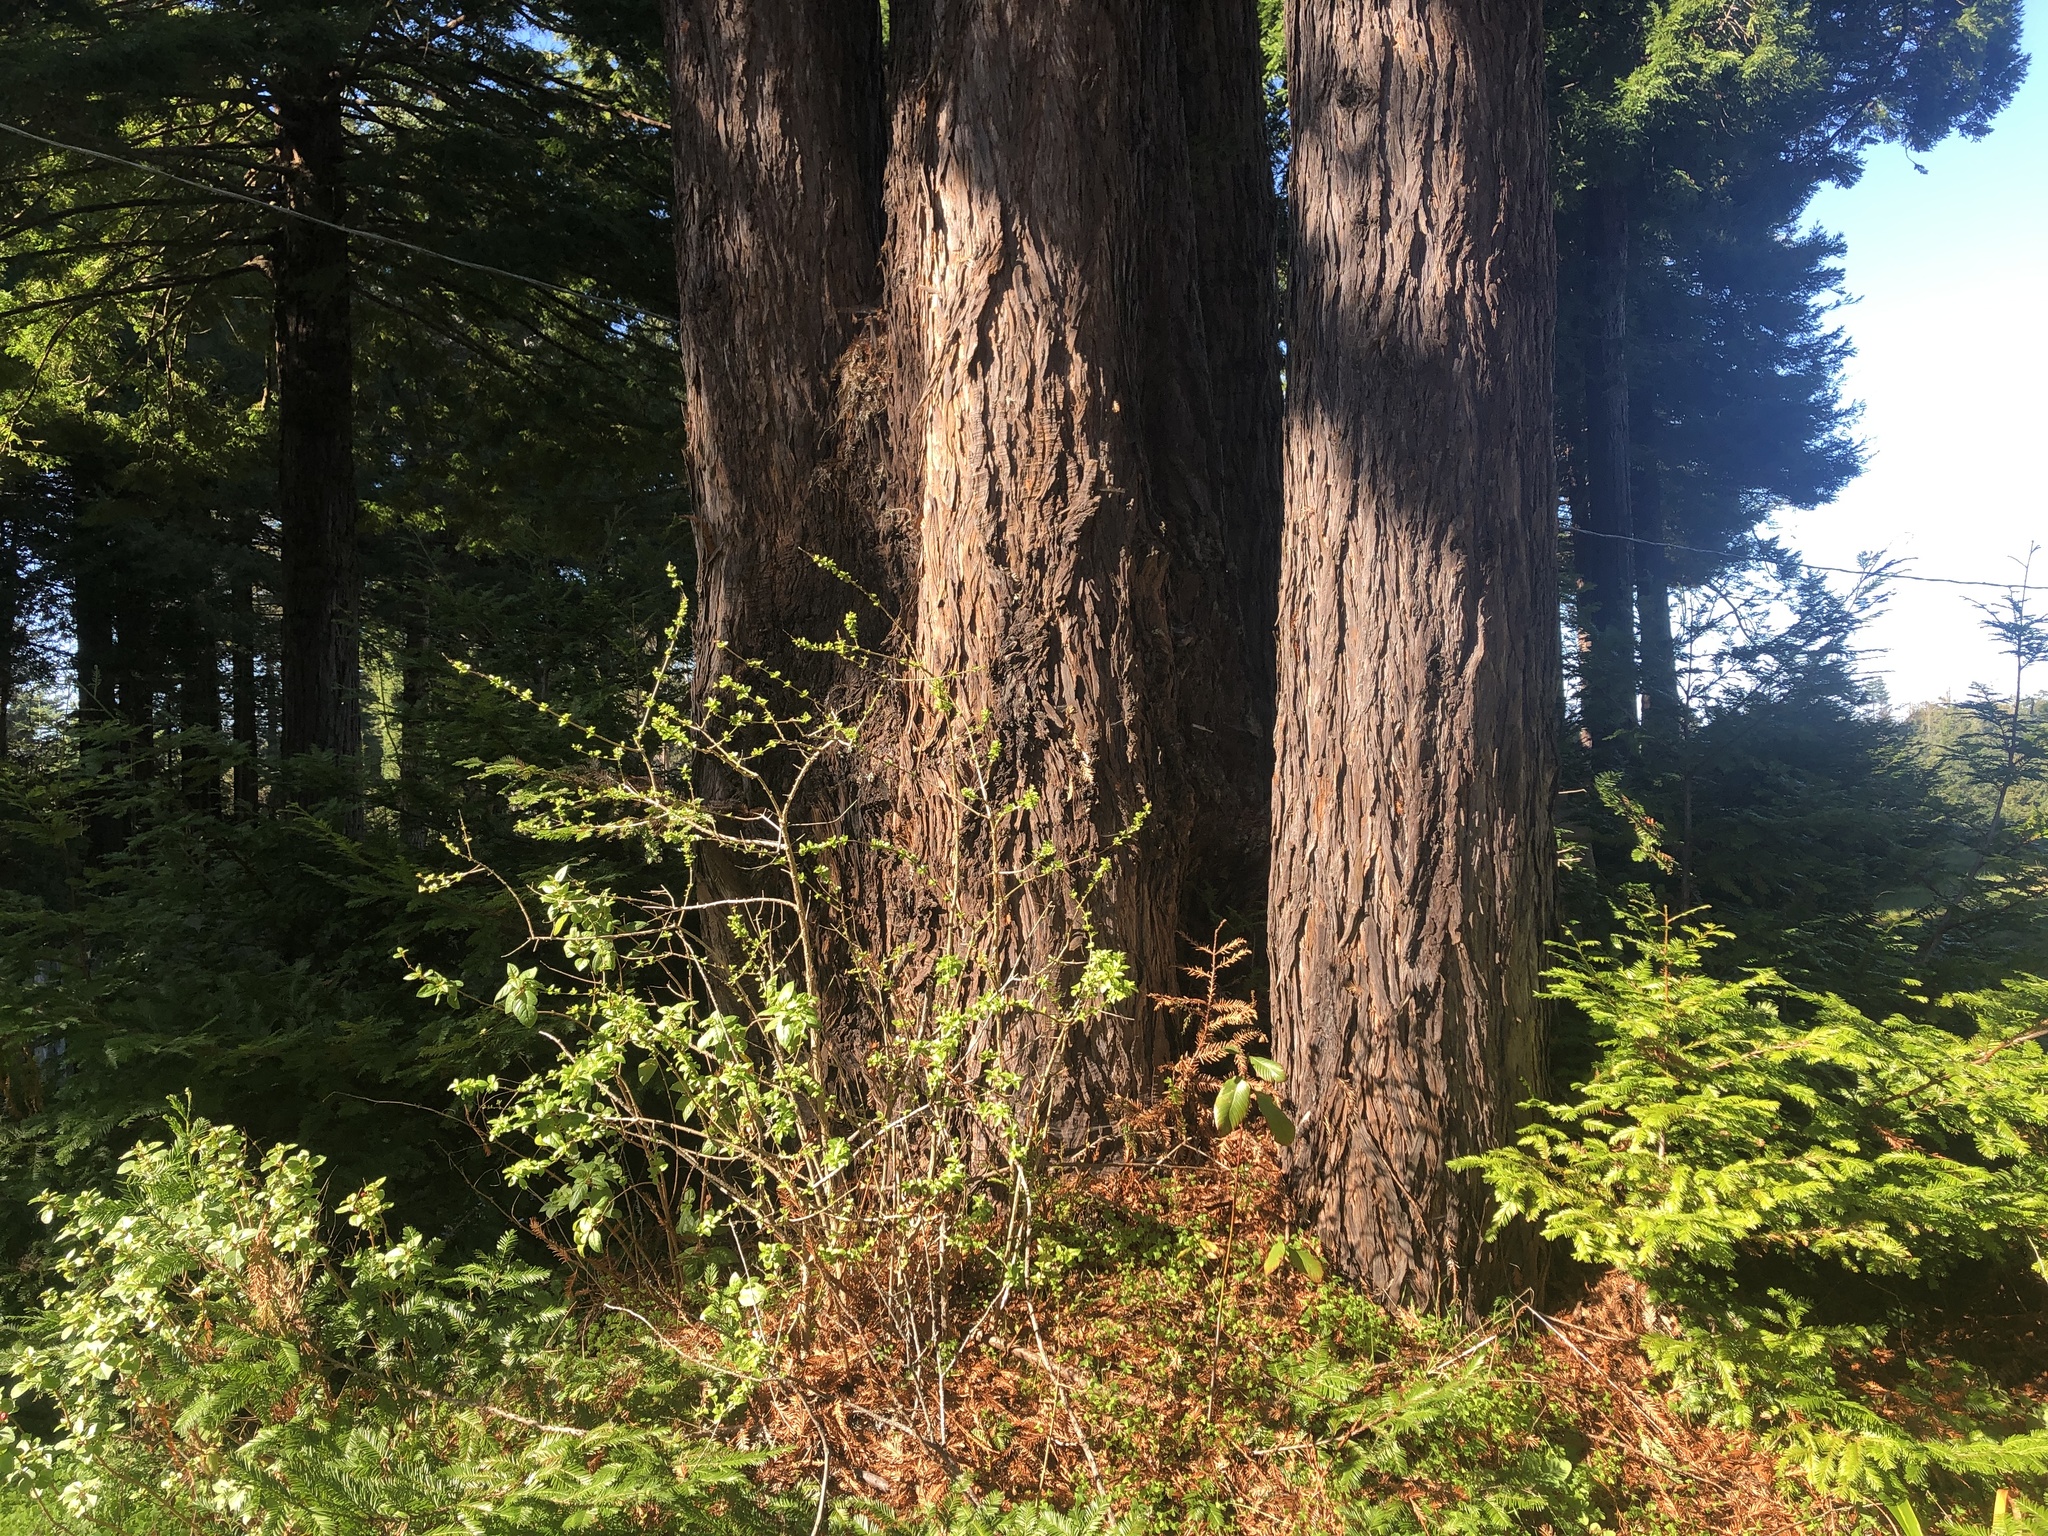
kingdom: Plantae
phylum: Tracheophyta
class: Pinopsida
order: Pinales
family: Cupressaceae
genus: Sequoia
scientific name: Sequoia sempervirens
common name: Coast redwood
